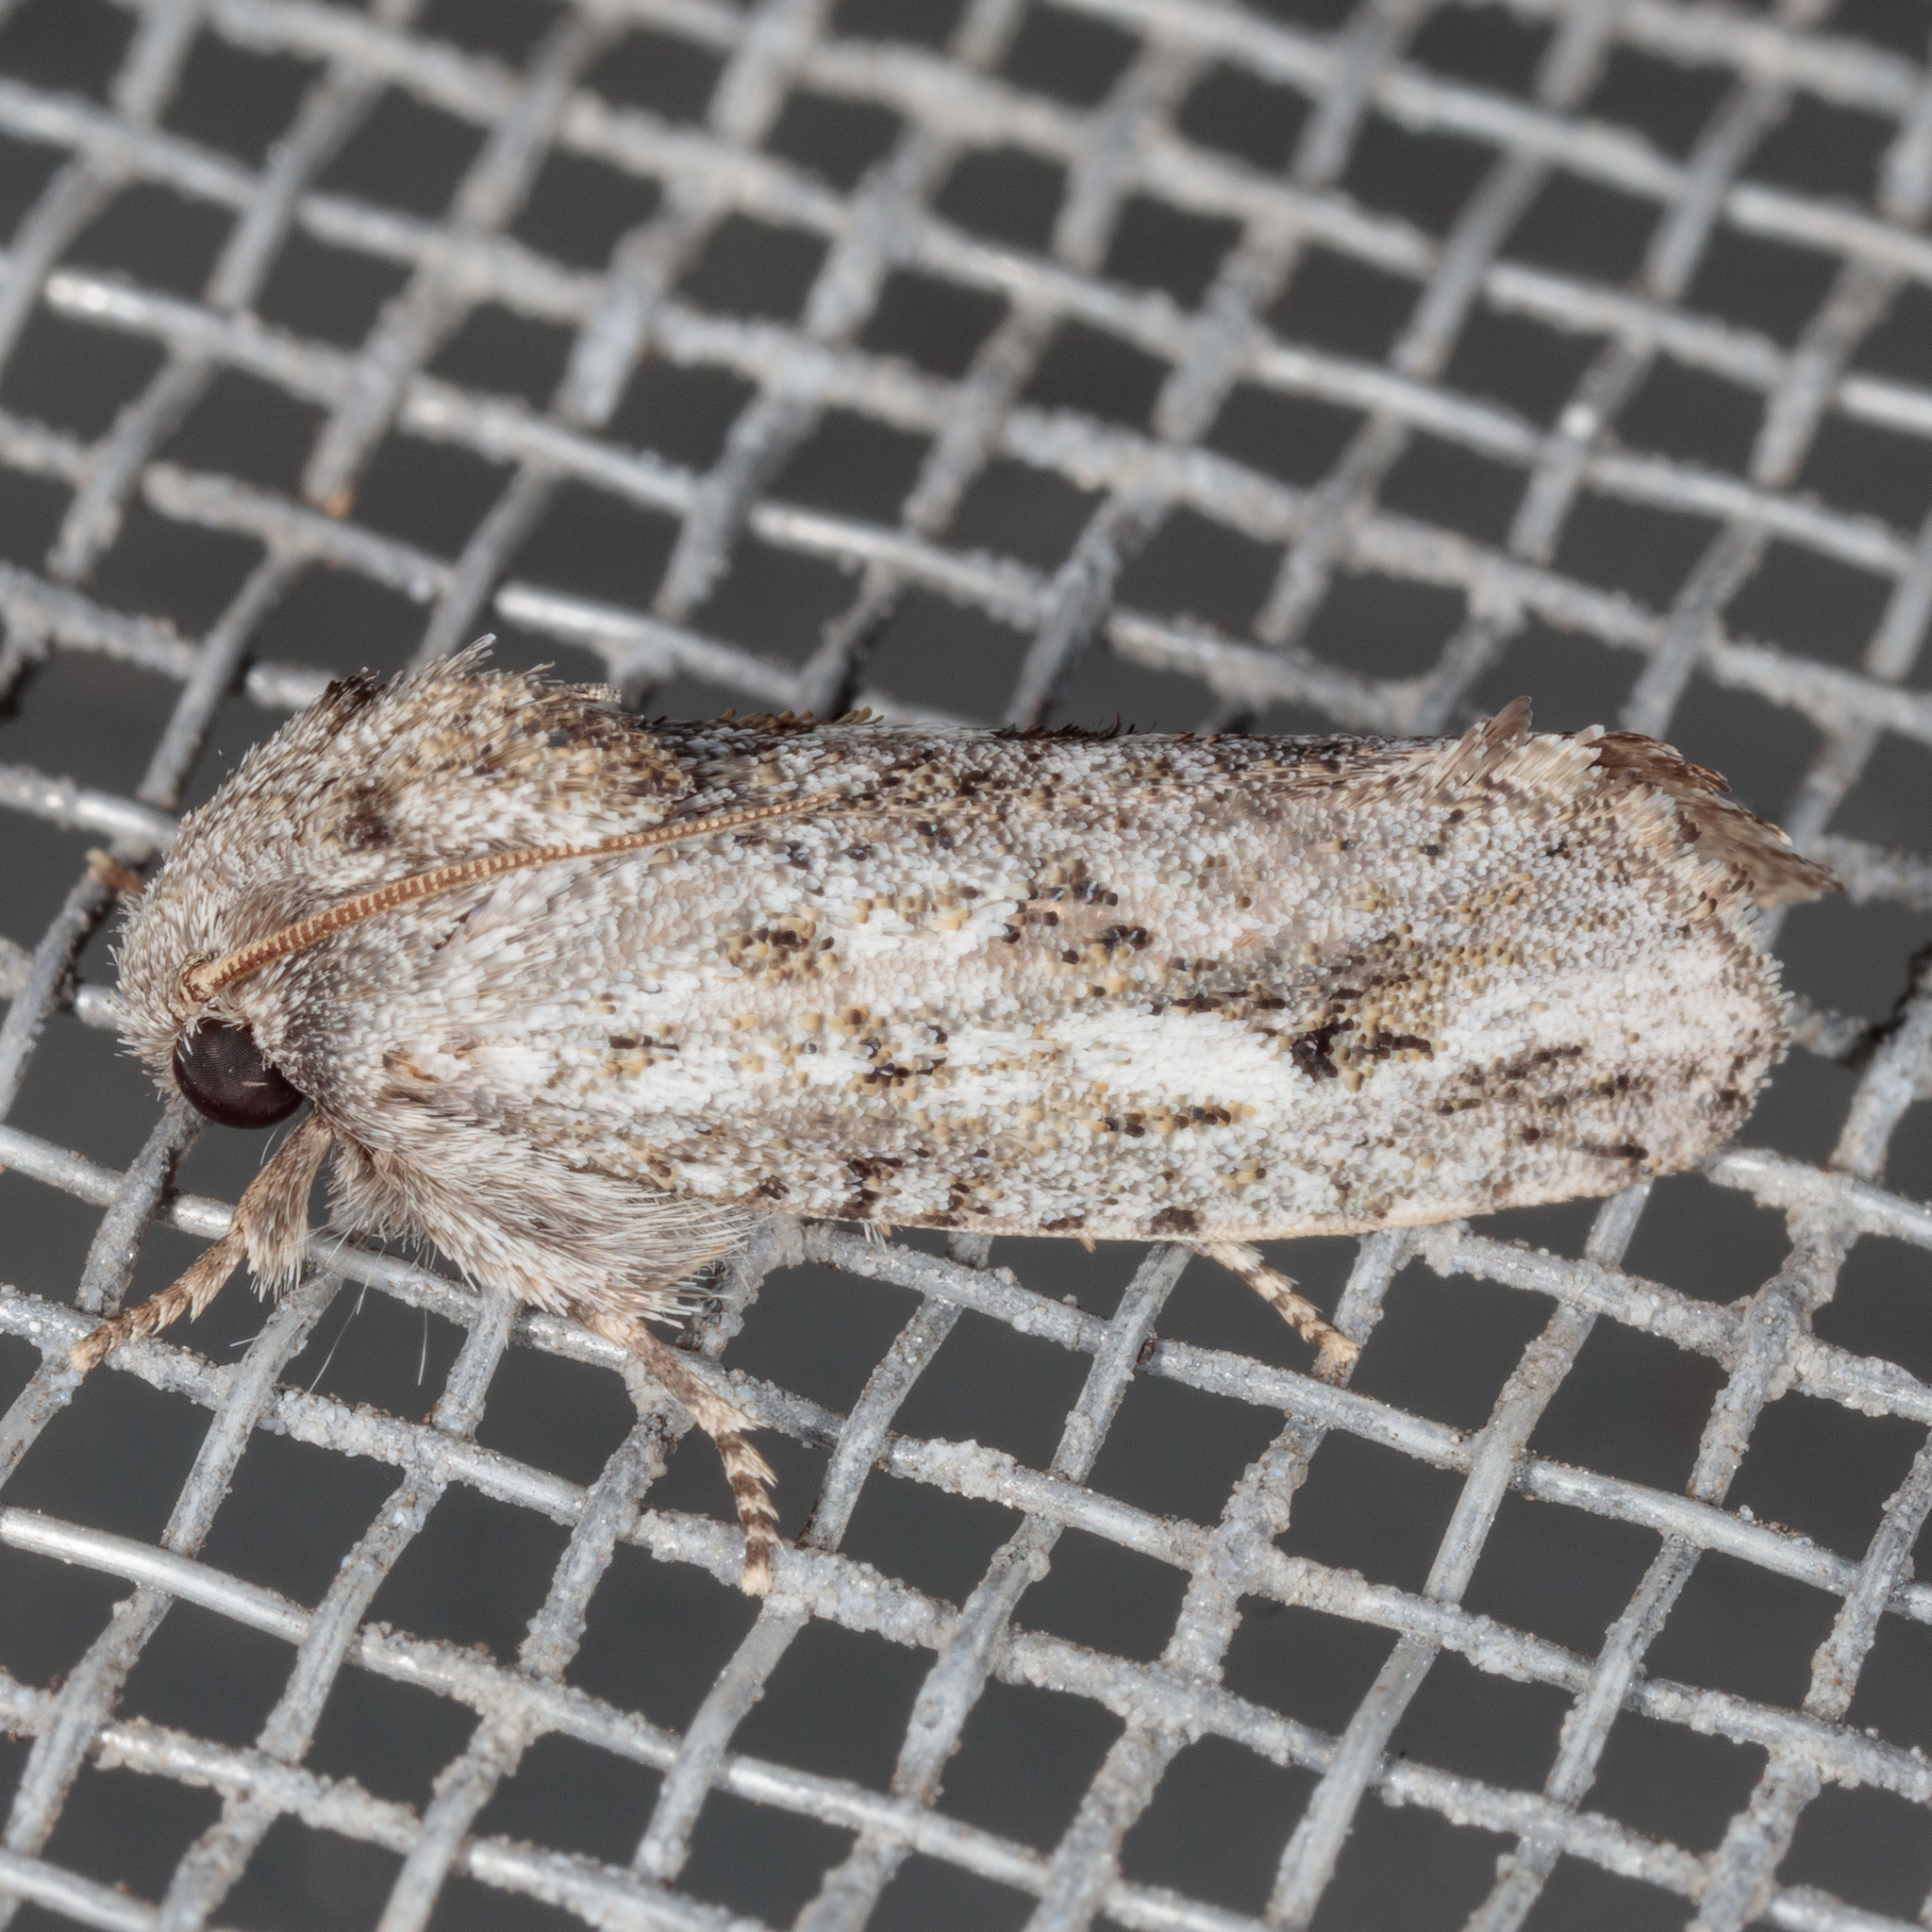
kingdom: Animalia
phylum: Arthropoda
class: Insecta
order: Lepidoptera
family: Tineidae
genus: Acrolophus
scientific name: Acrolophus griseus
